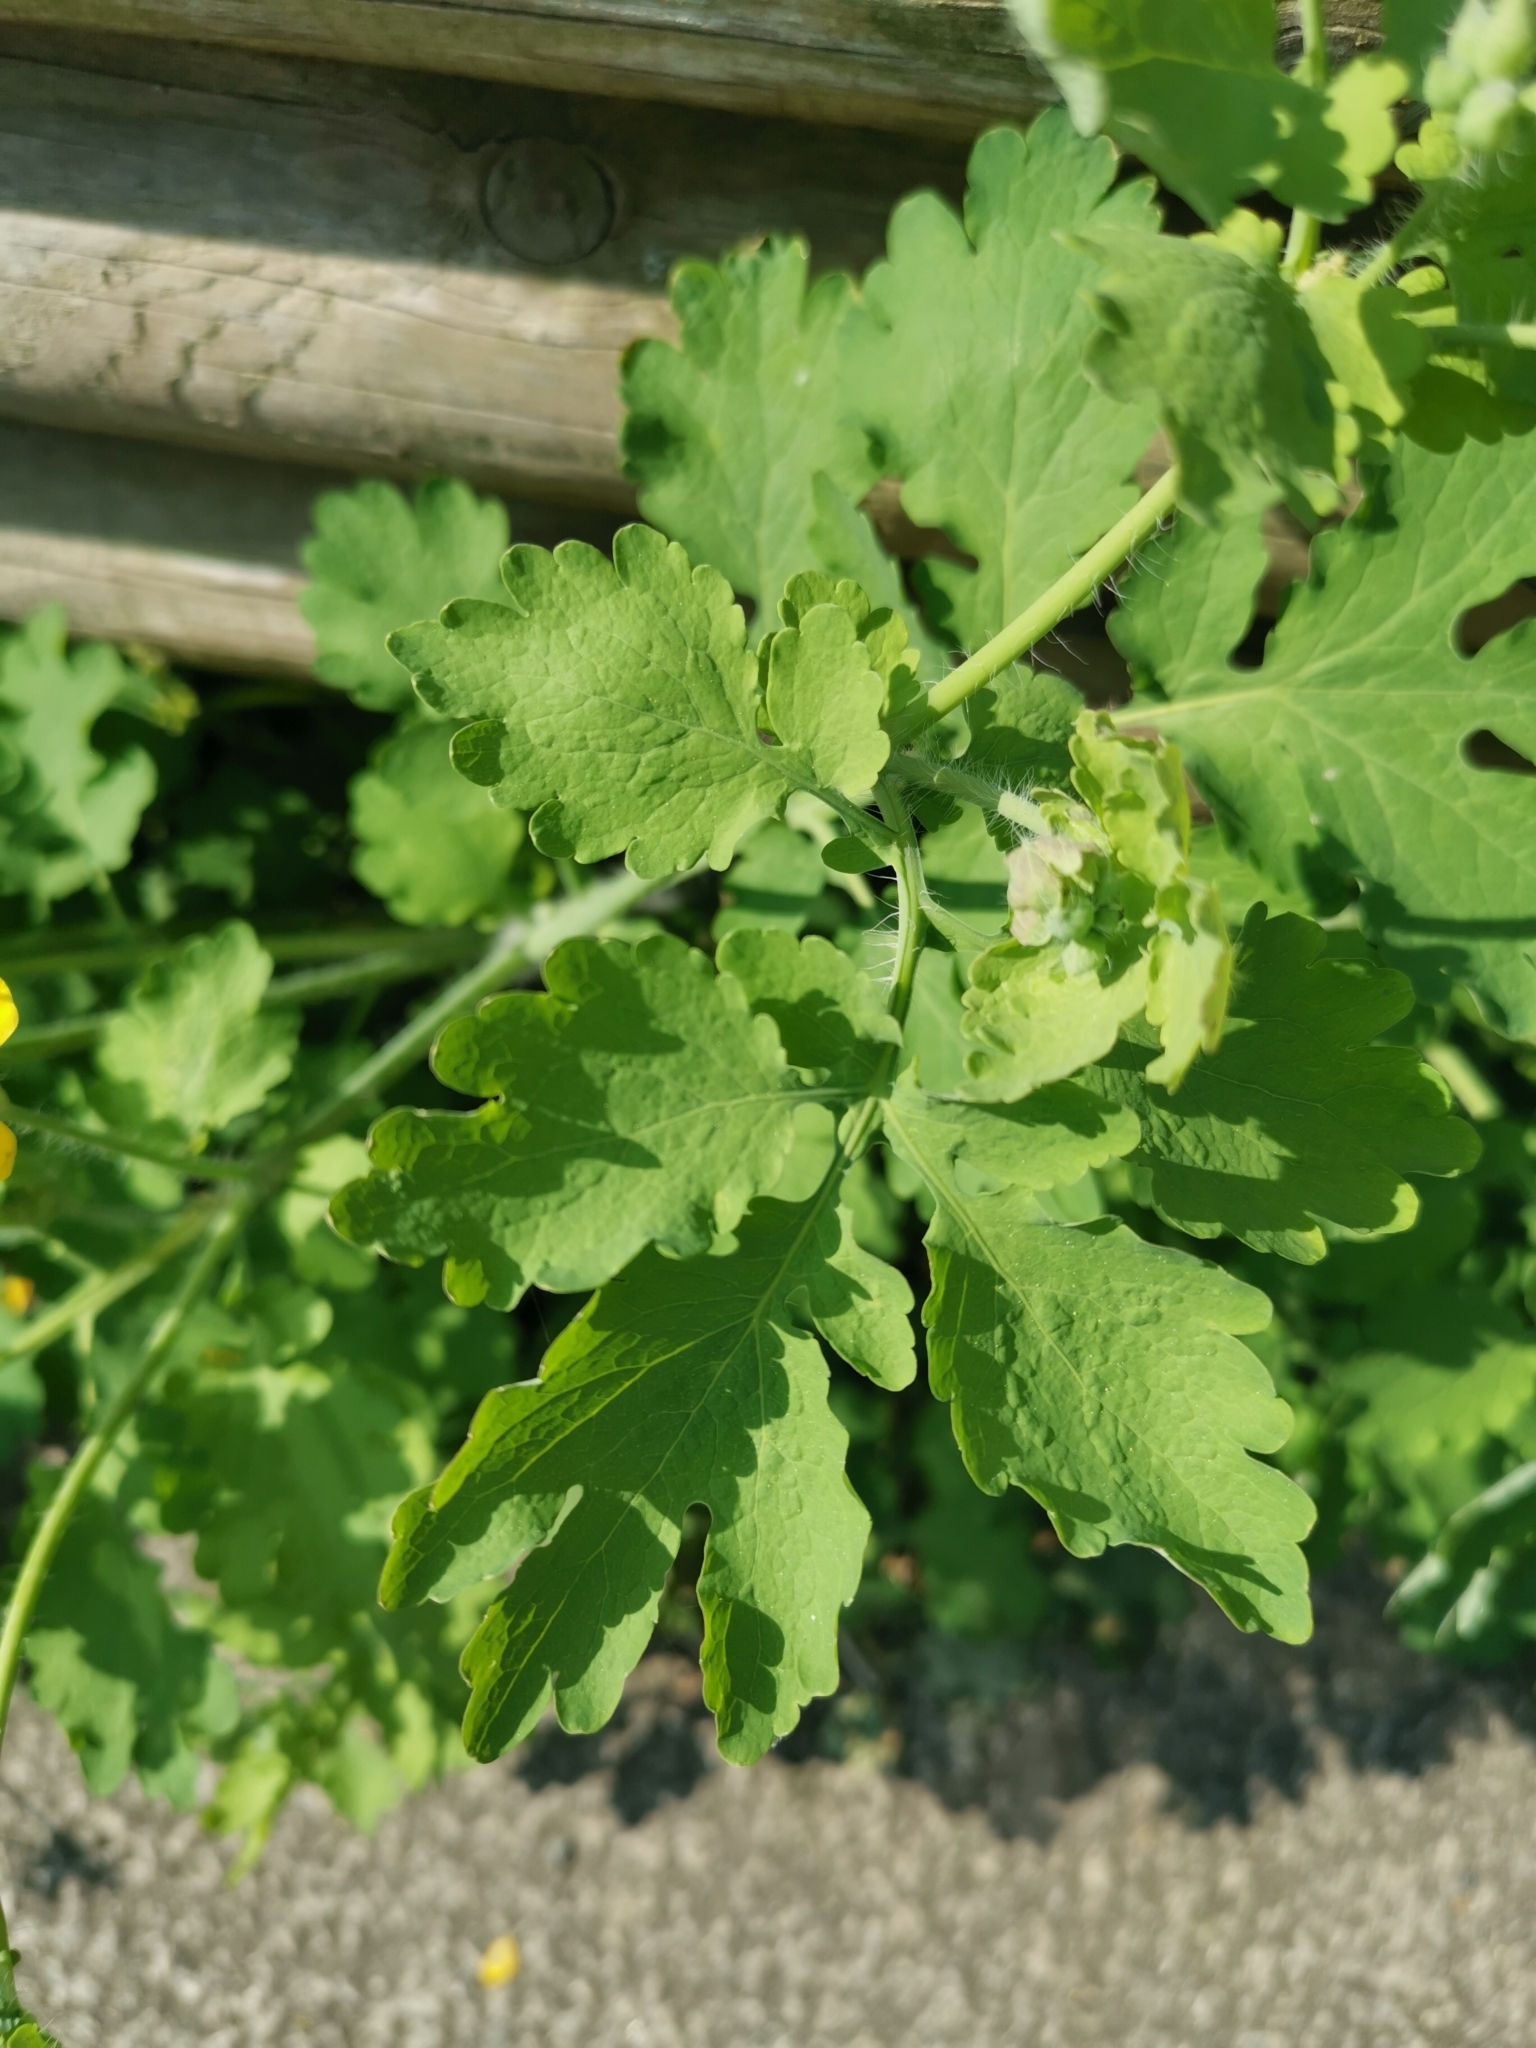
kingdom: Plantae
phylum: Tracheophyta
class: Magnoliopsida
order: Ranunculales
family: Papaveraceae
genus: Chelidonium
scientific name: Chelidonium majus
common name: Greater celandine
